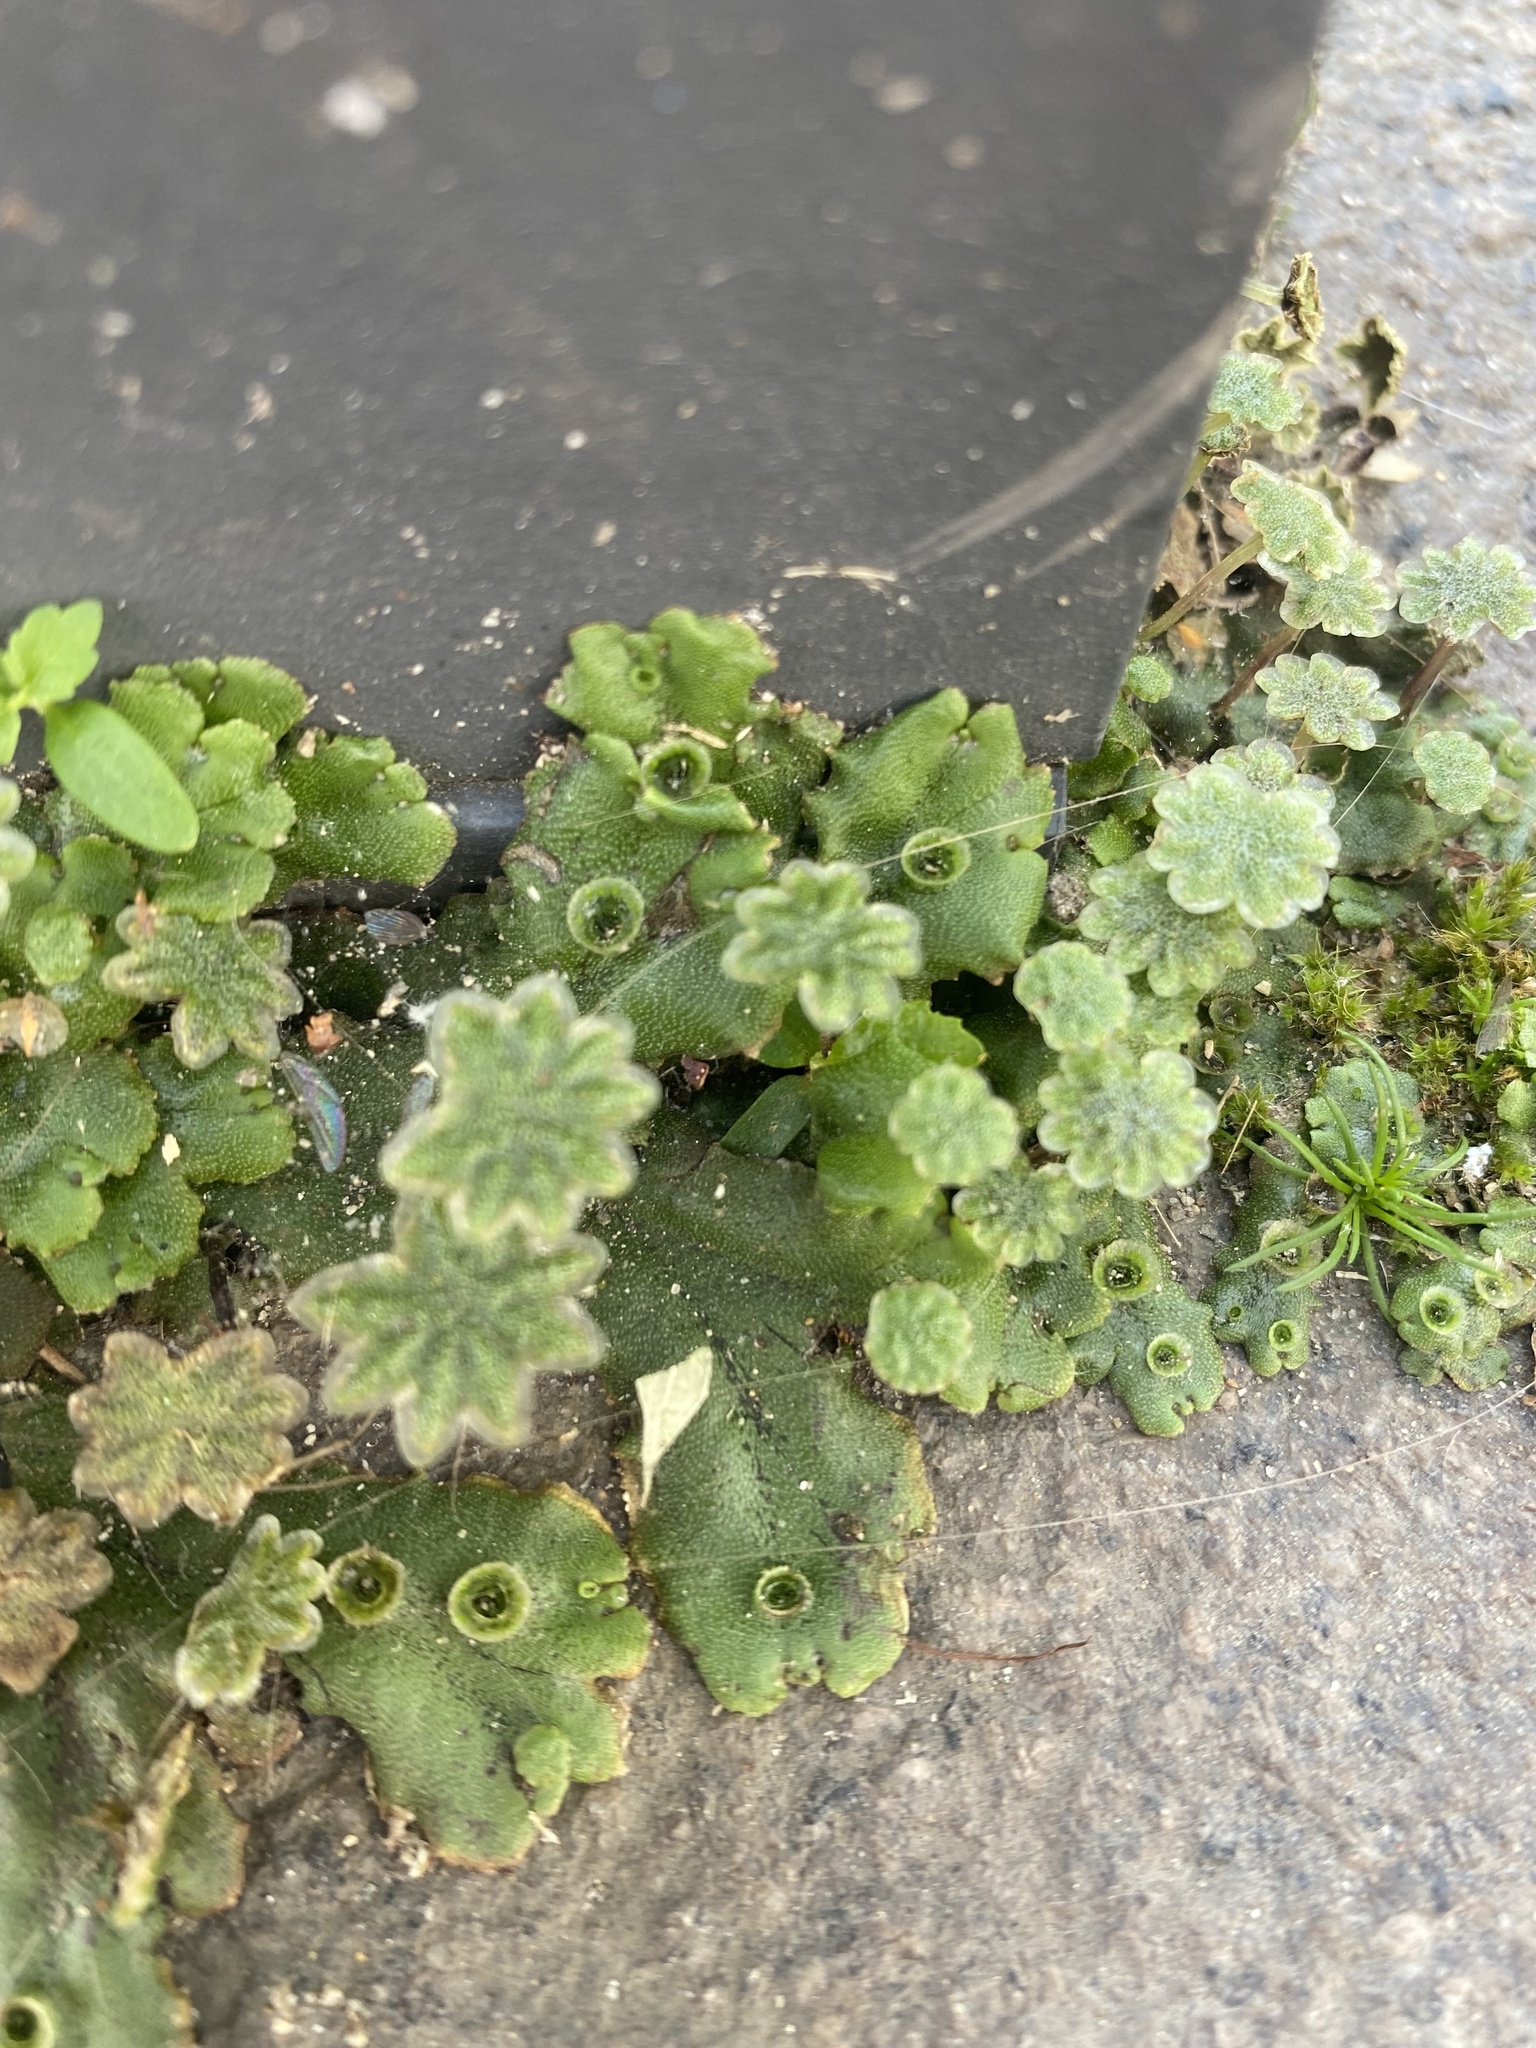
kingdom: Plantae
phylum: Marchantiophyta
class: Marchantiopsida
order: Marchantiales
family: Marchantiaceae
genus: Marchantia
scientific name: Marchantia polymorpha
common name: Common liverwort
